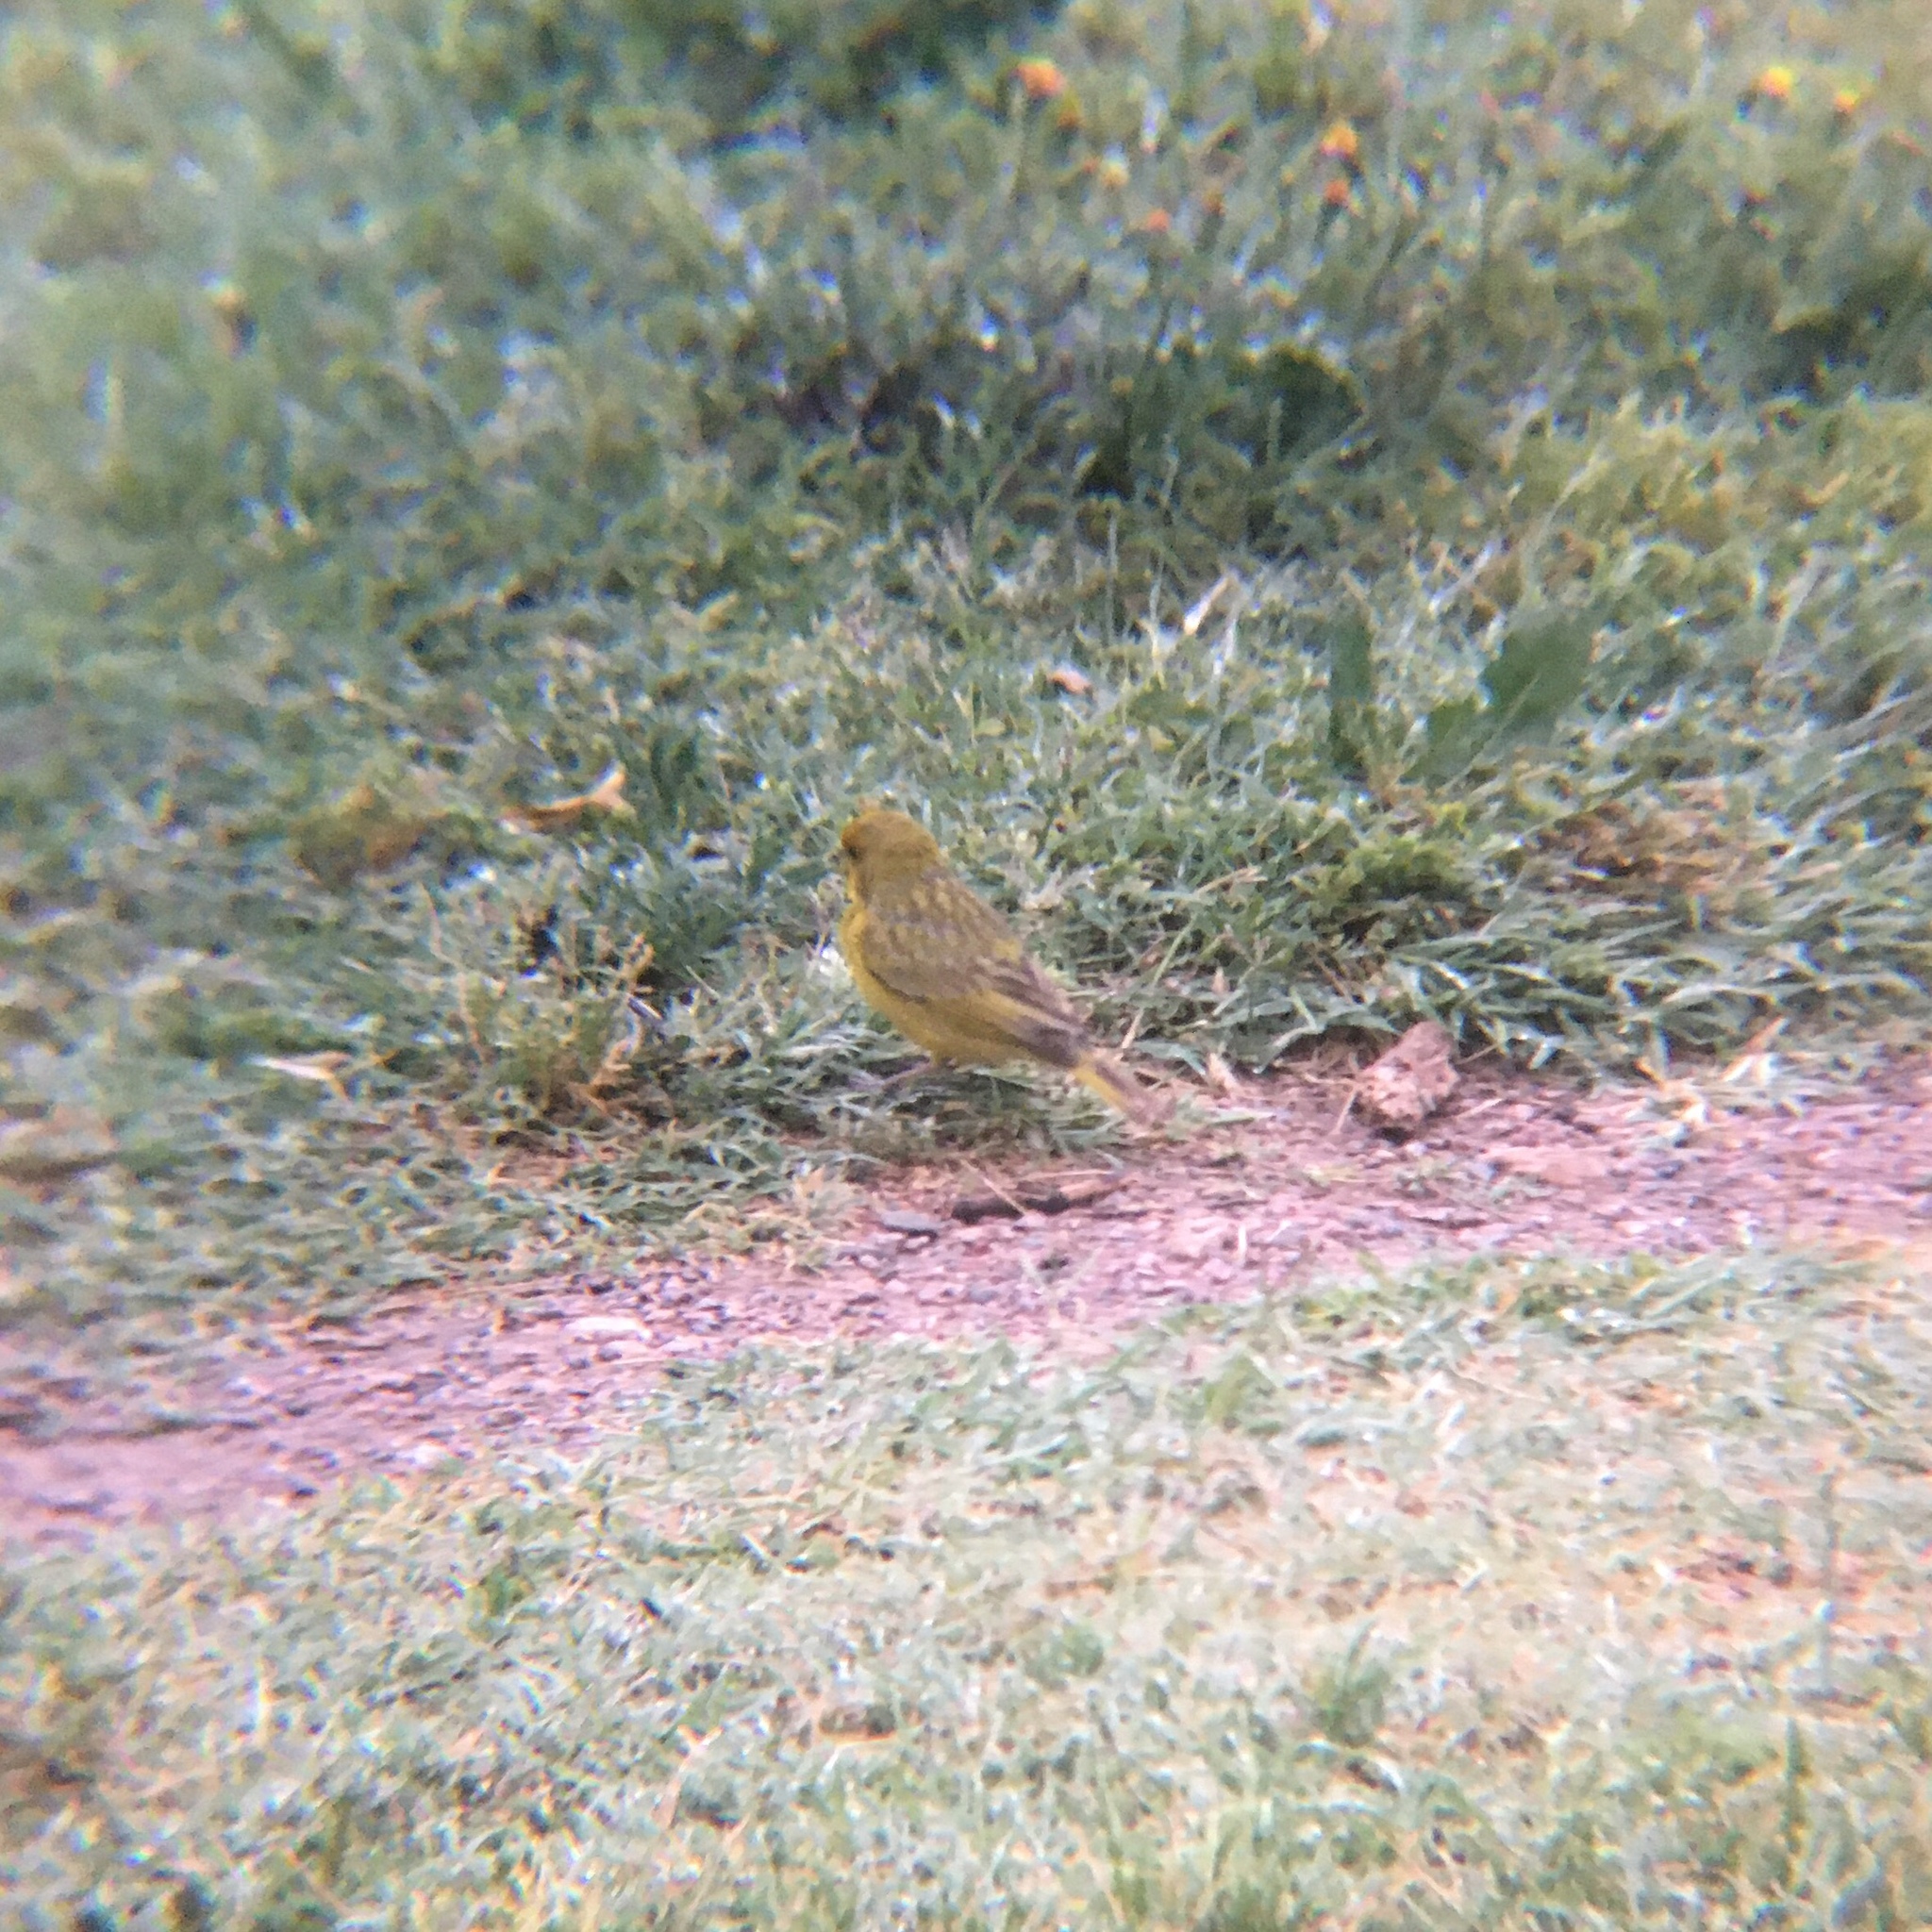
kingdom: Animalia
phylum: Chordata
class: Aves
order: Passeriformes
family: Thraupidae
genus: Sicalis
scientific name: Sicalis flaveola
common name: Saffron finch
